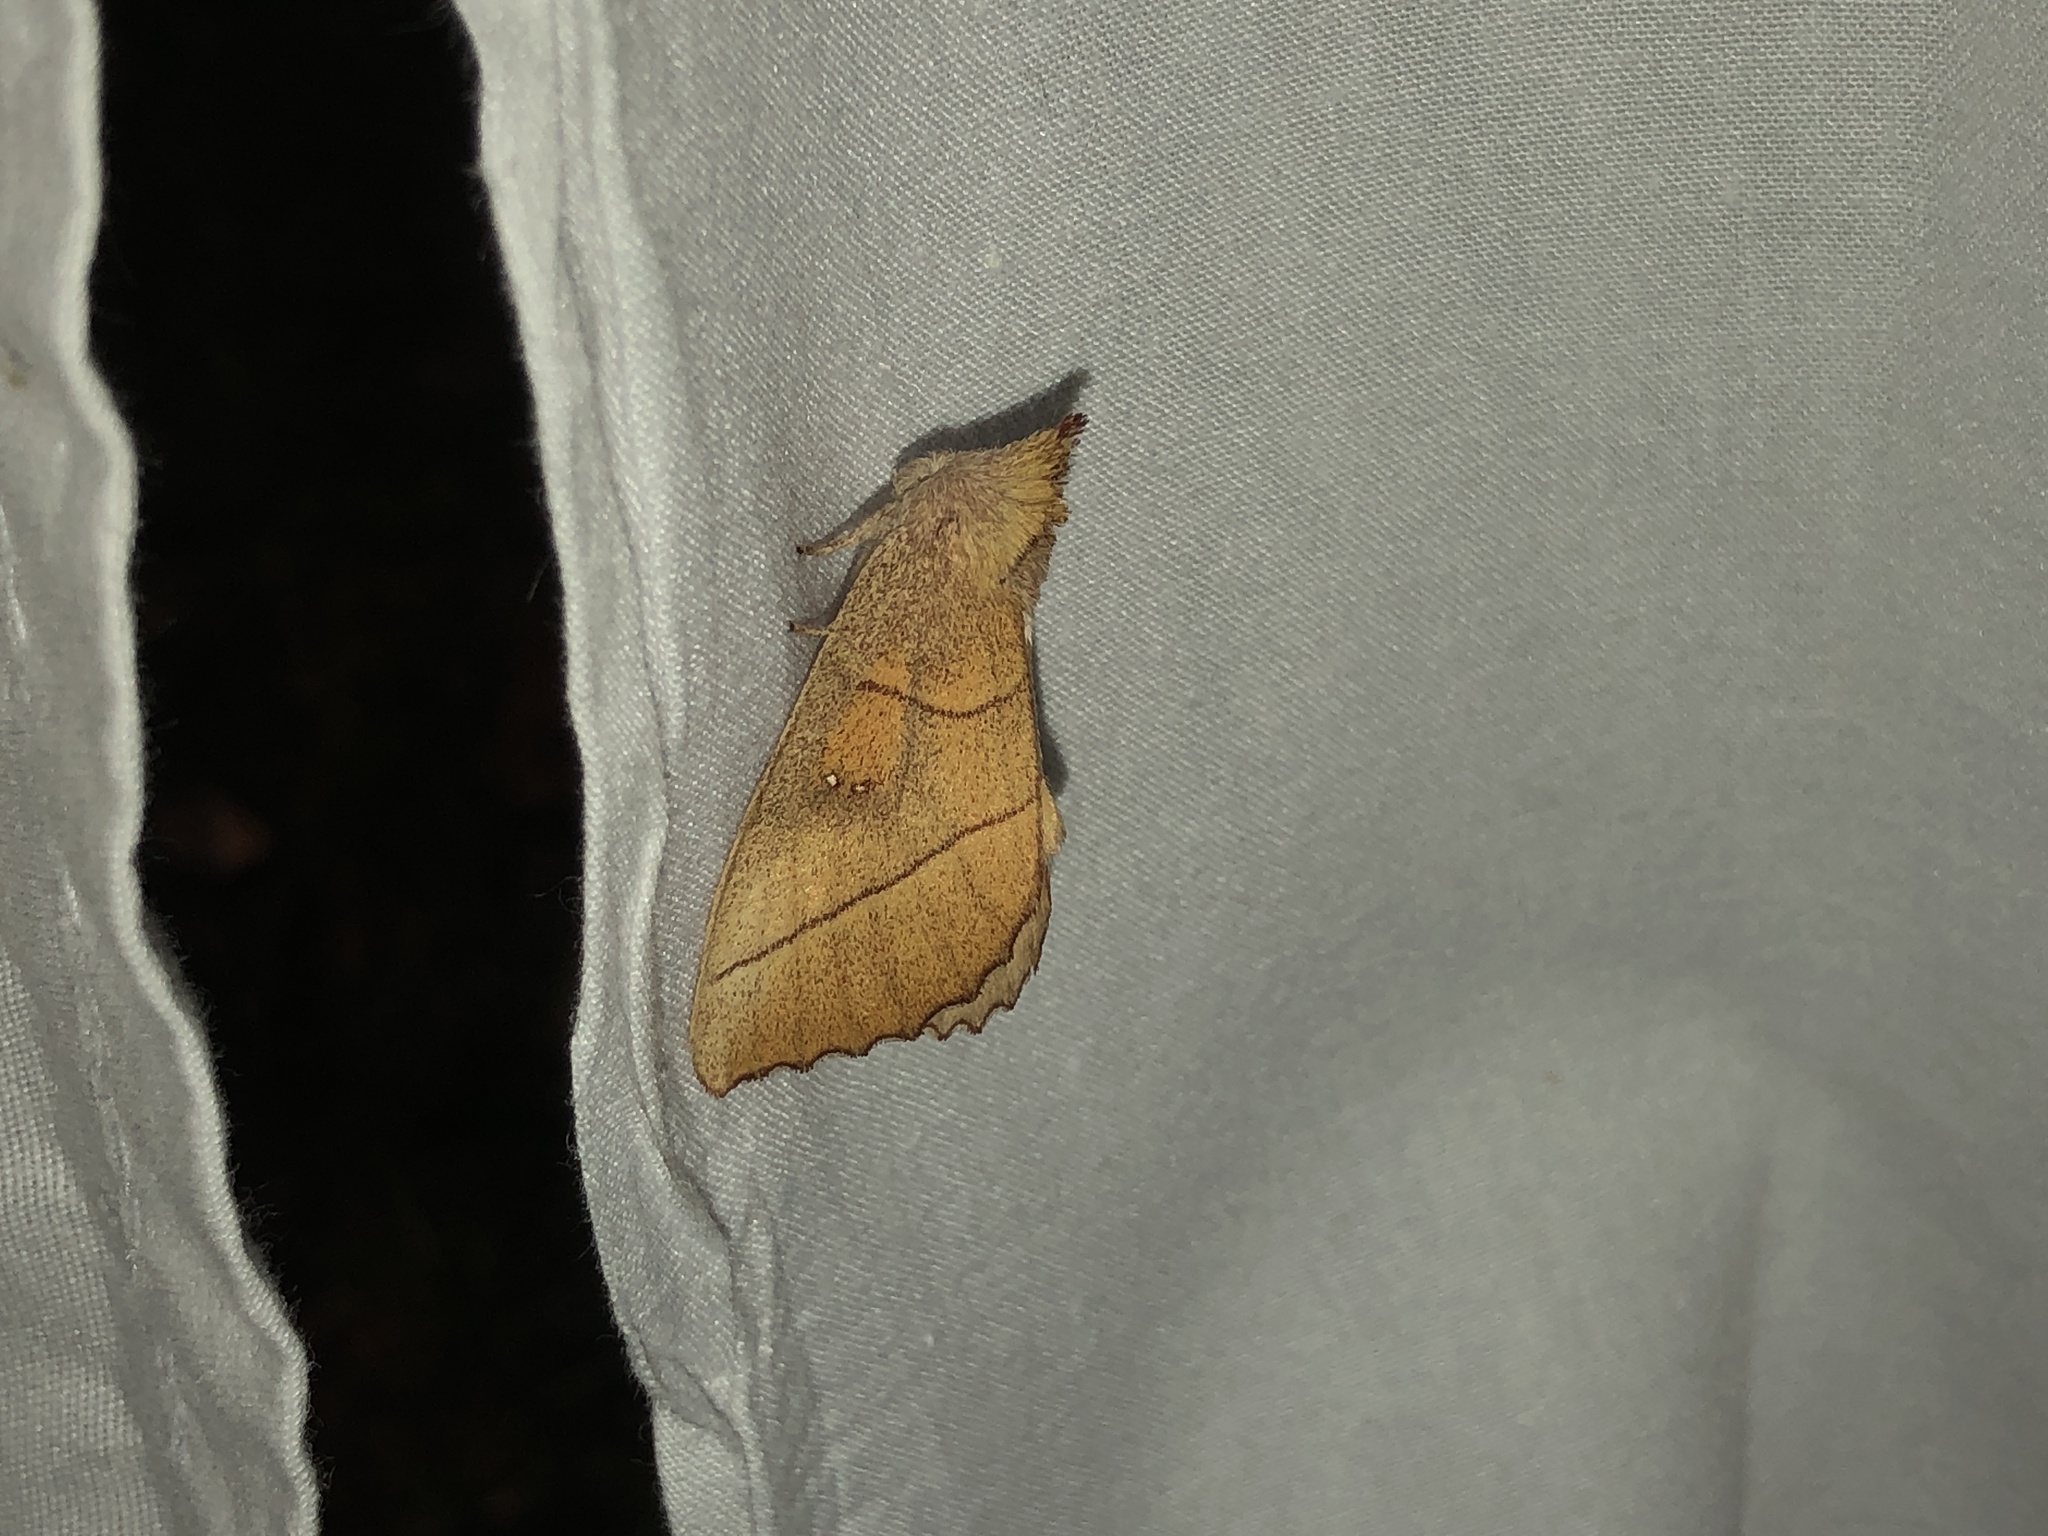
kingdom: Animalia
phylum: Arthropoda
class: Insecta
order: Lepidoptera
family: Notodontidae
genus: Nadata
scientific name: Nadata gibbosa
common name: White-dotted prominent
